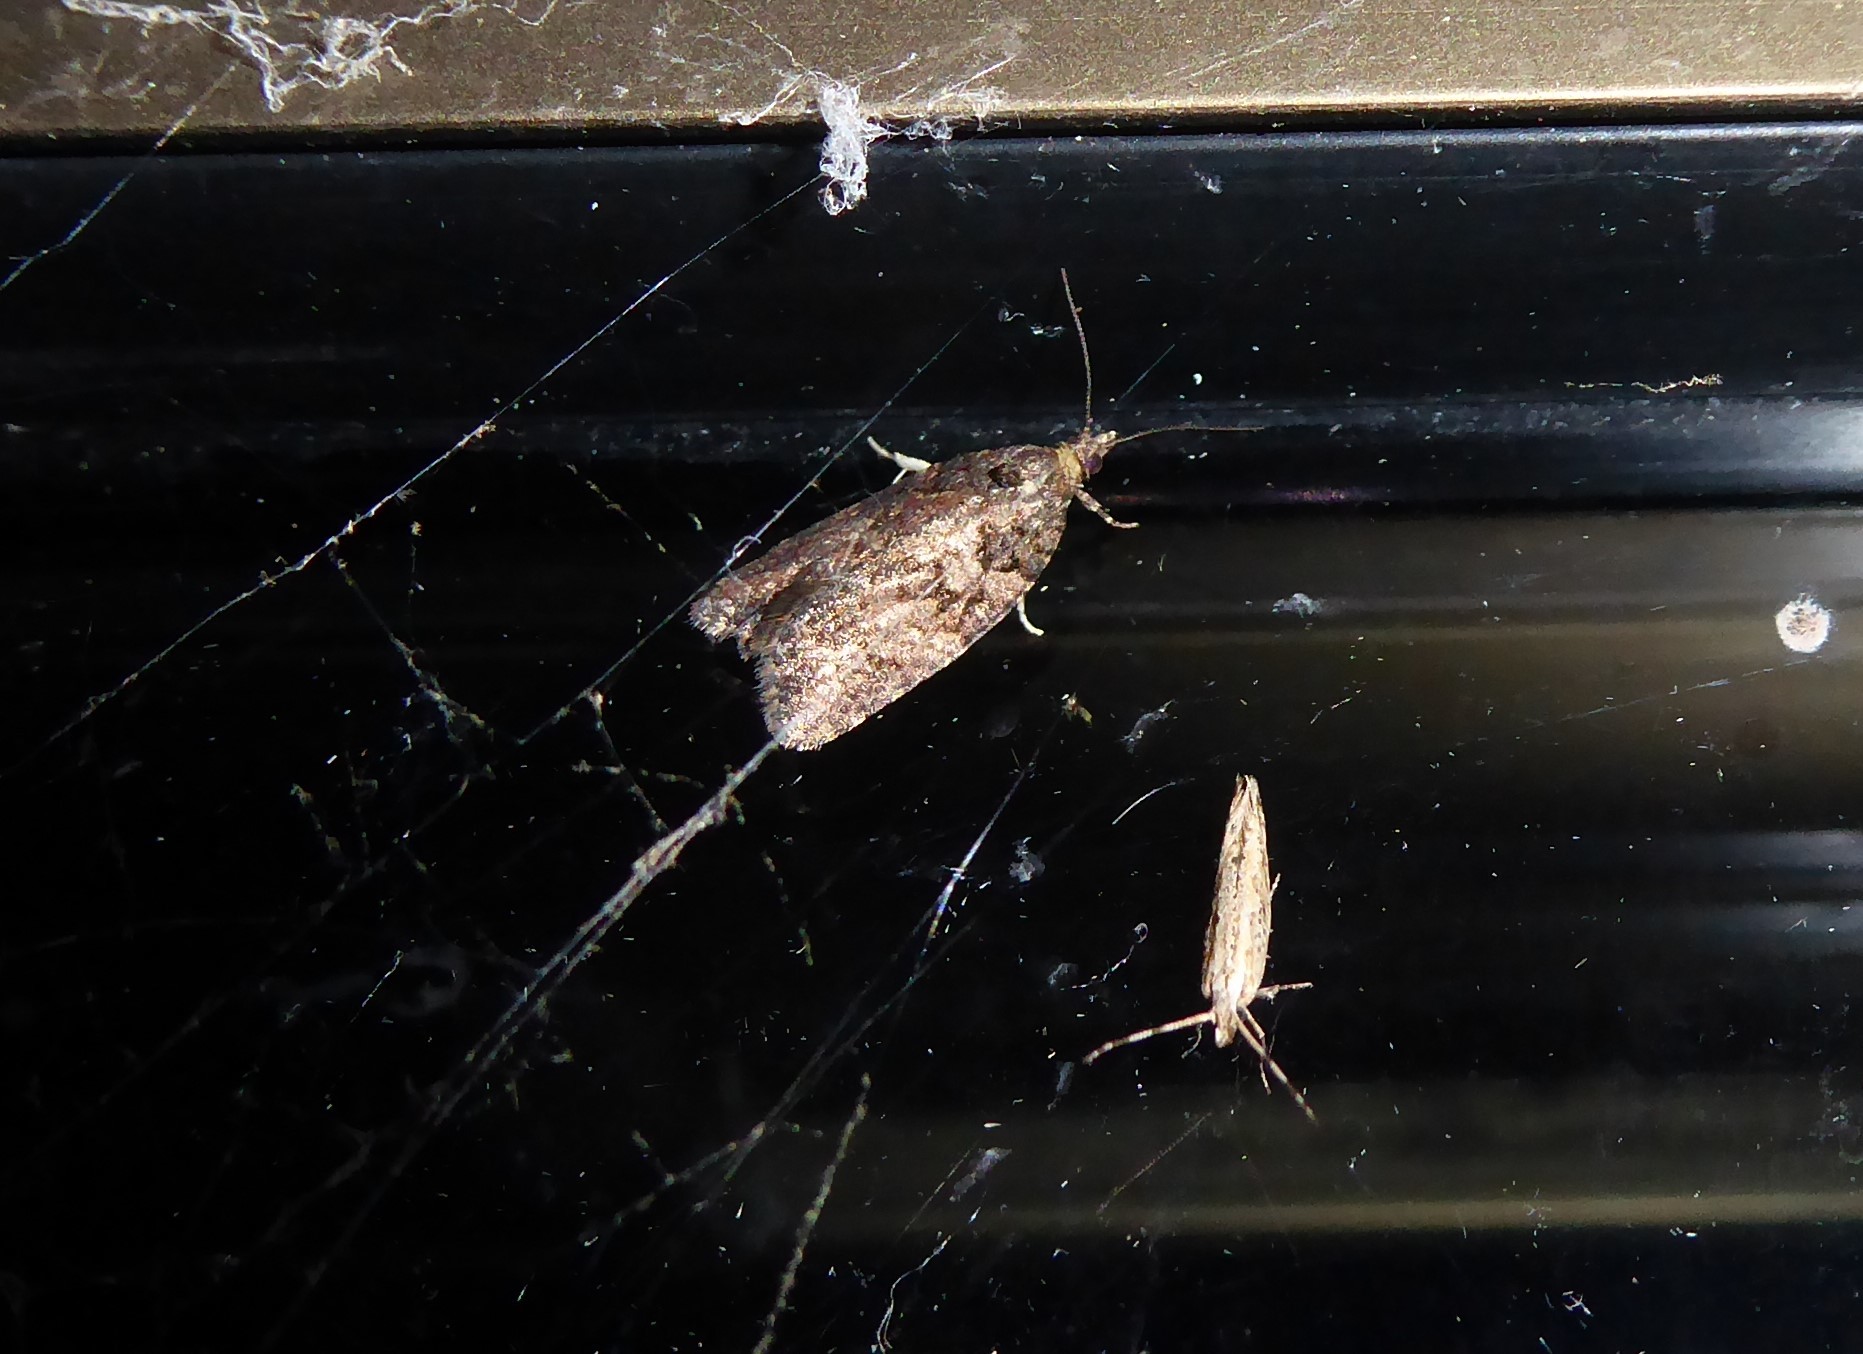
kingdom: Animalia
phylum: Arthropoda
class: Insecta
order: Lepidoptera
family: Plutellidae
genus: Plutella
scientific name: Plutella xylostella
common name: Diamond-back moth
